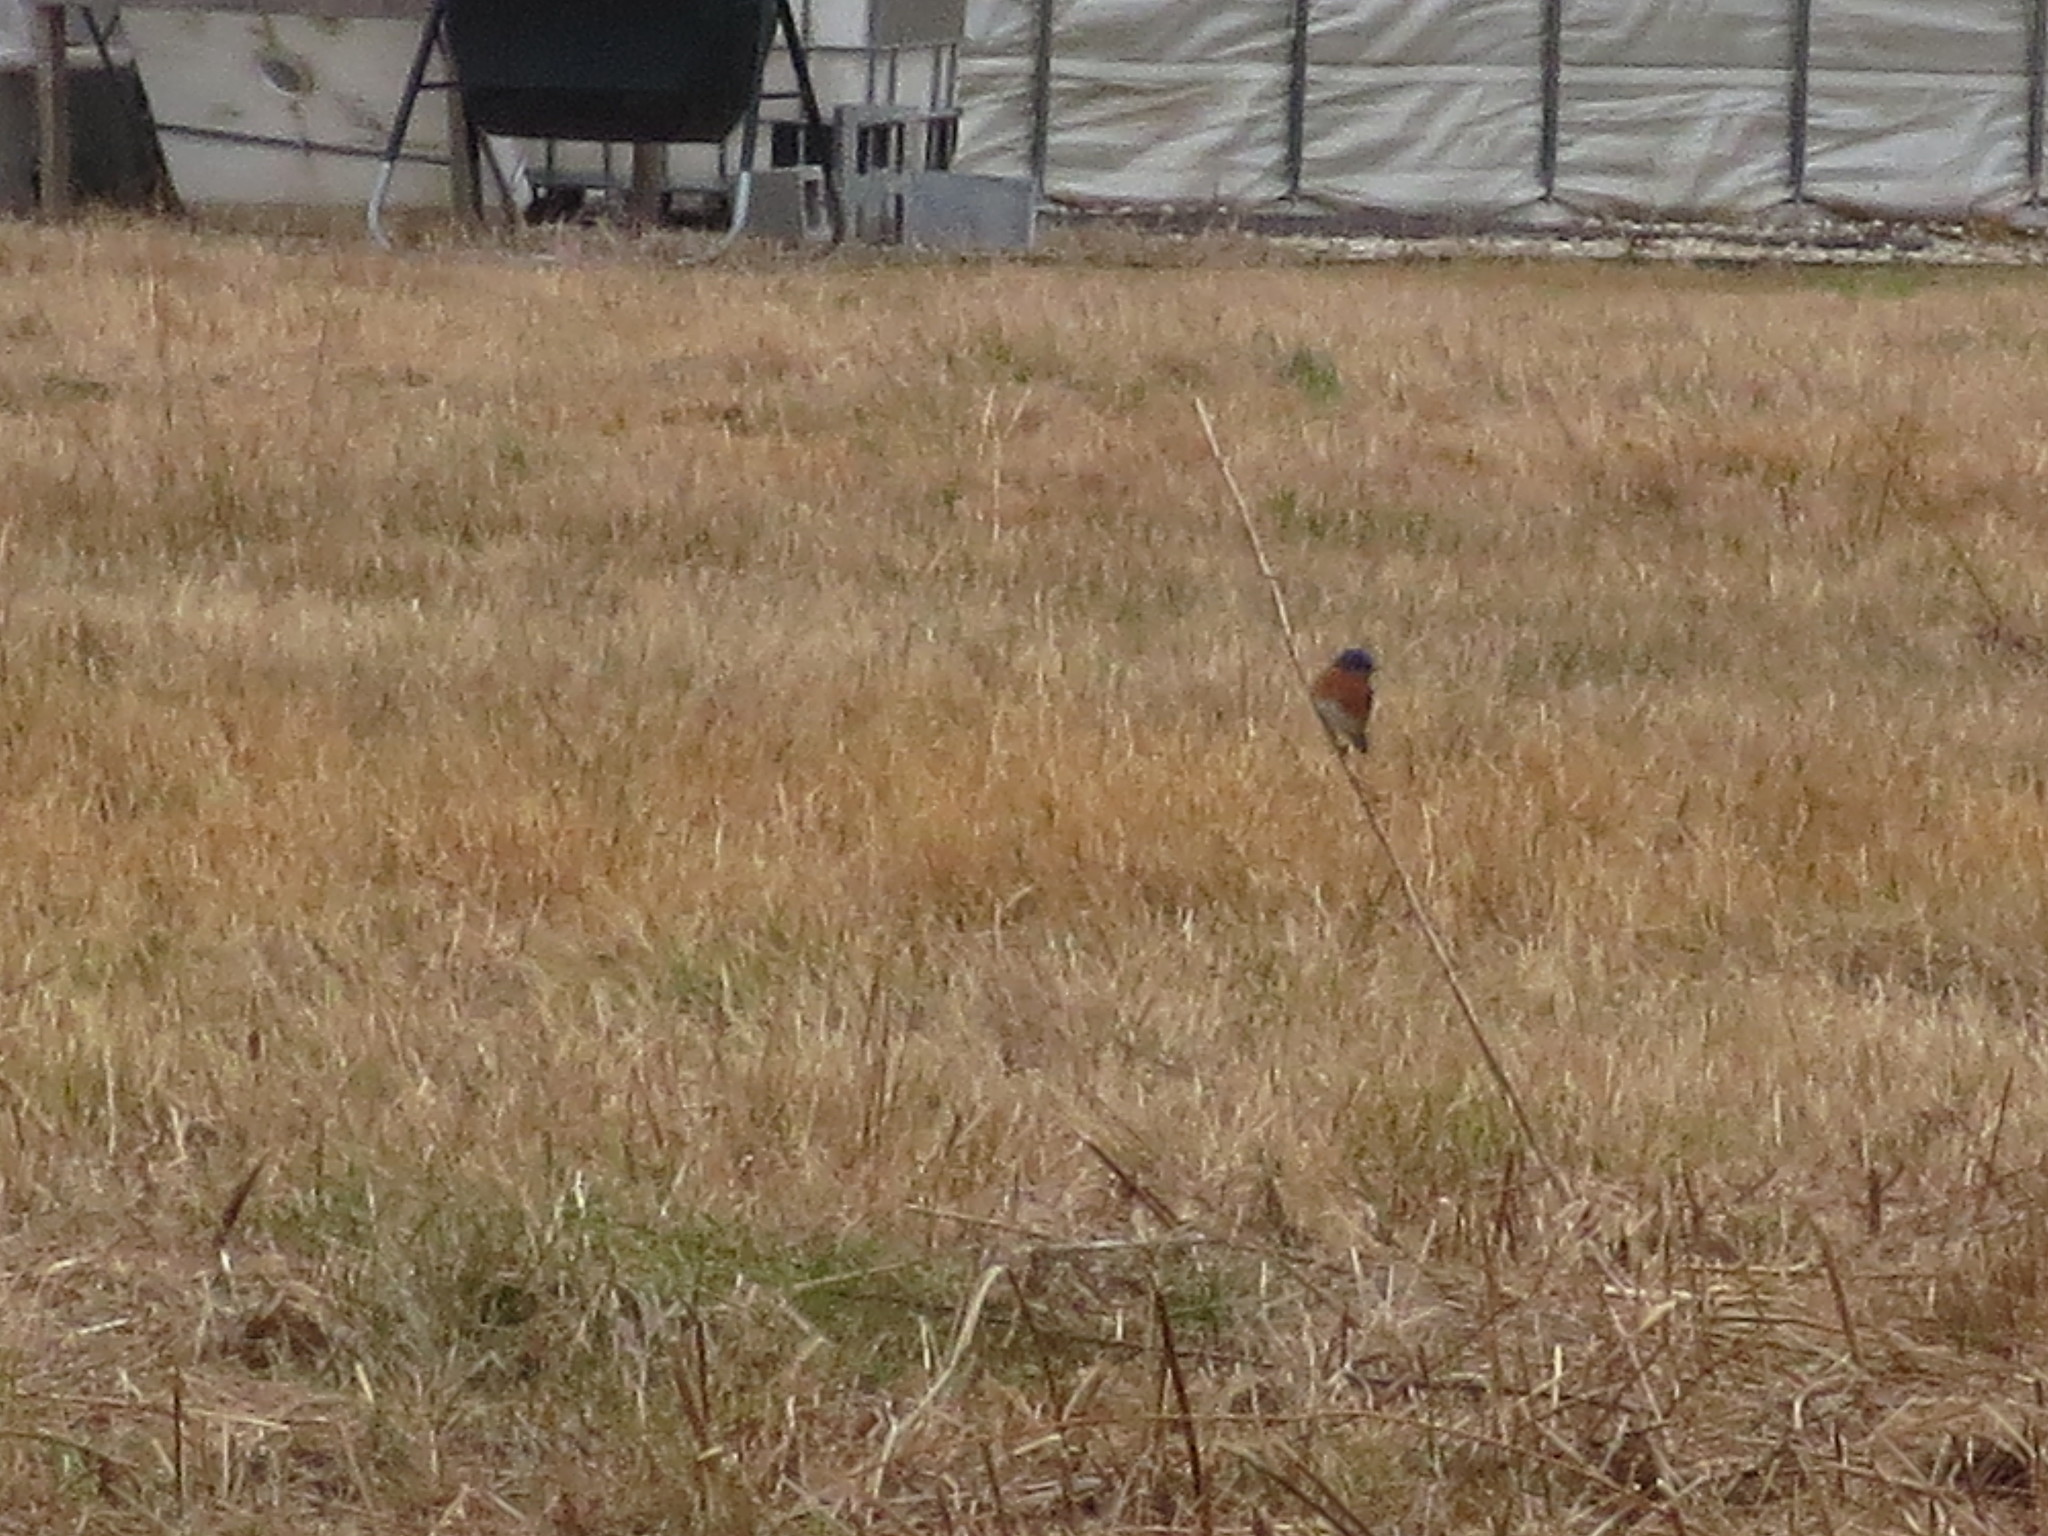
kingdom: Animalia
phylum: Chordata
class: Aves
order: Passeriformes
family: Turdidae
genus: Sialia
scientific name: Sialia sialis
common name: Eastern bluebird
